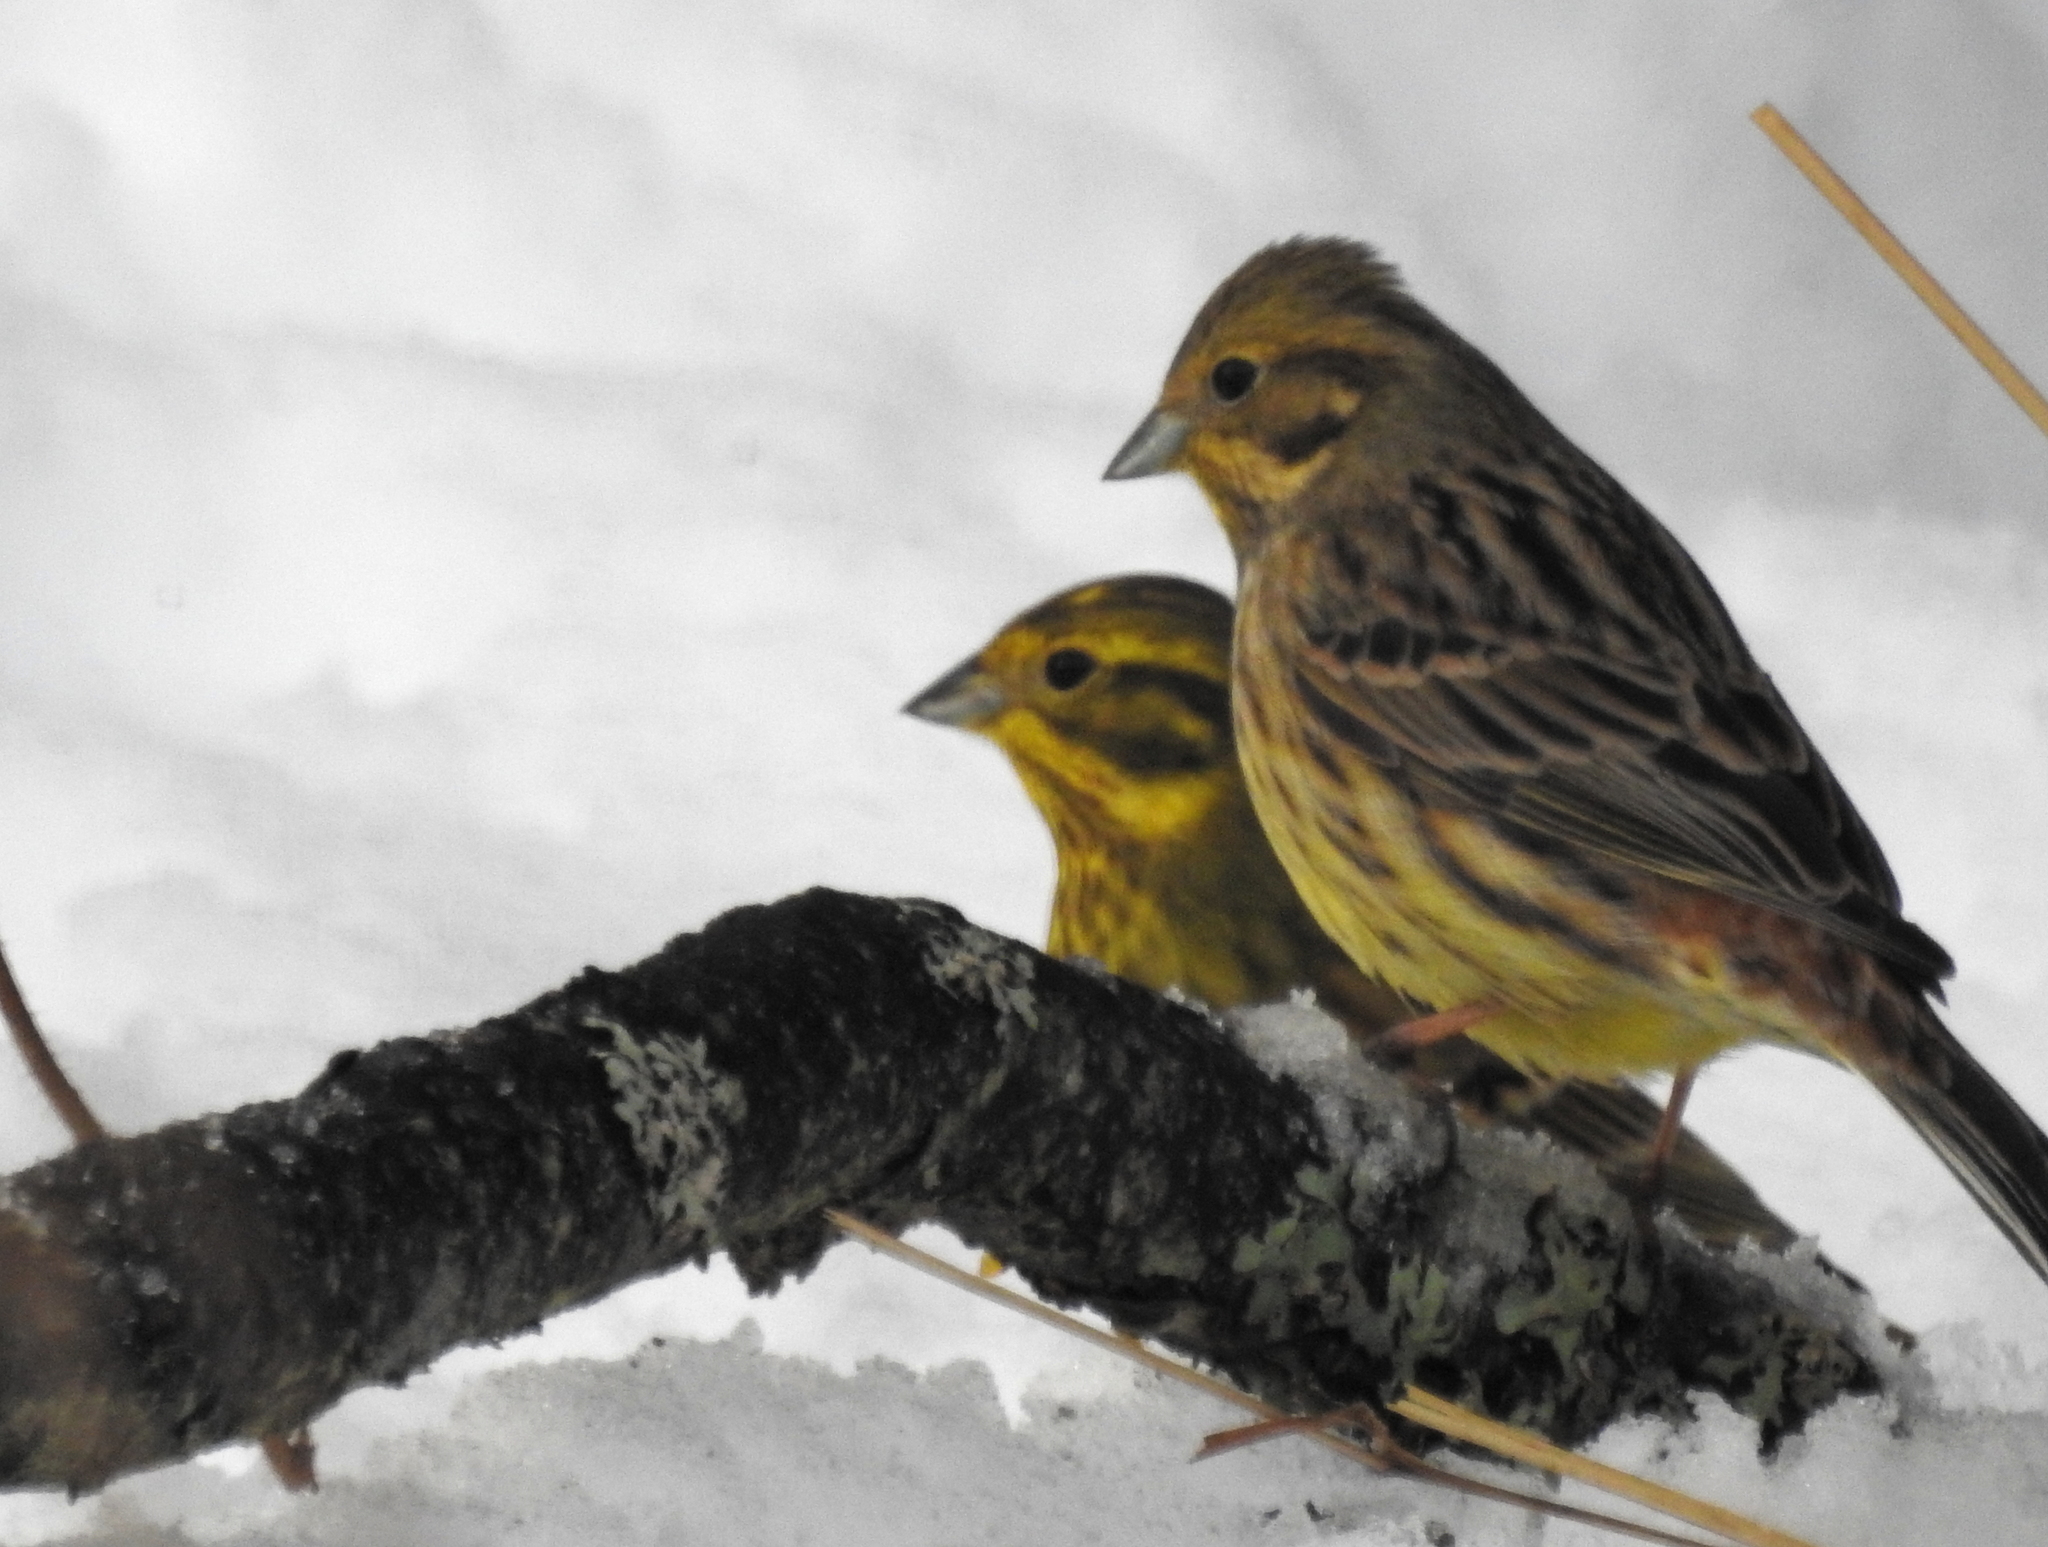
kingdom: Animalia
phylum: Chordata
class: Aves
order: Passeriformes
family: Emberizidae
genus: Emberiza
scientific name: Emberiza citrinella
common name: Yellowhammer
